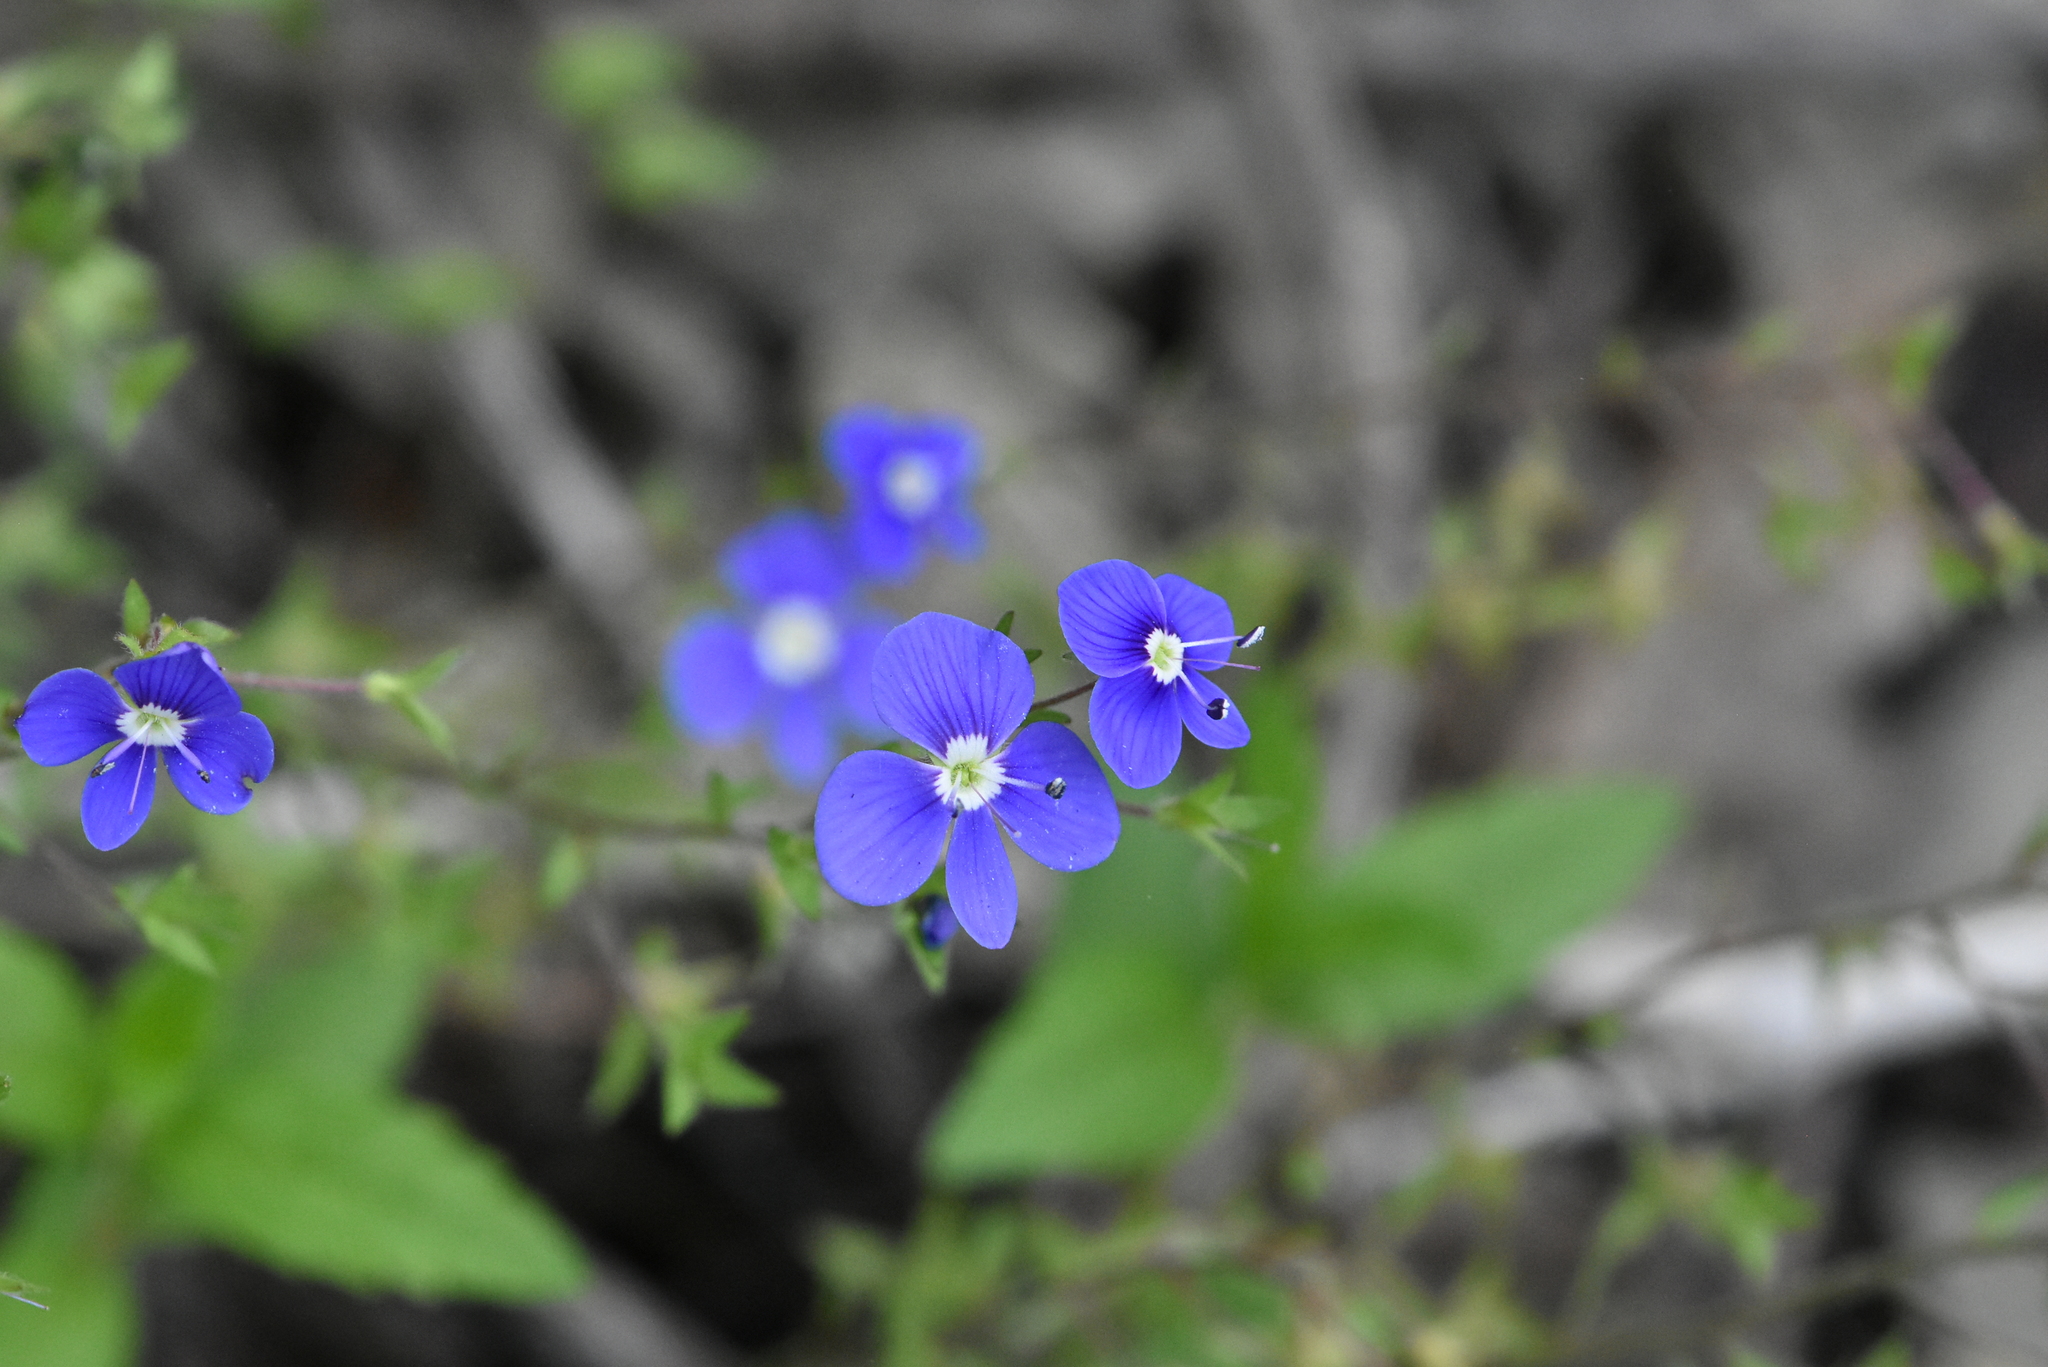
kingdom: Plantae
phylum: Tracheophyta
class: Magnoliopsida
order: Lamiales
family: Plantaginaceae
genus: Veronica
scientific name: Veronica
